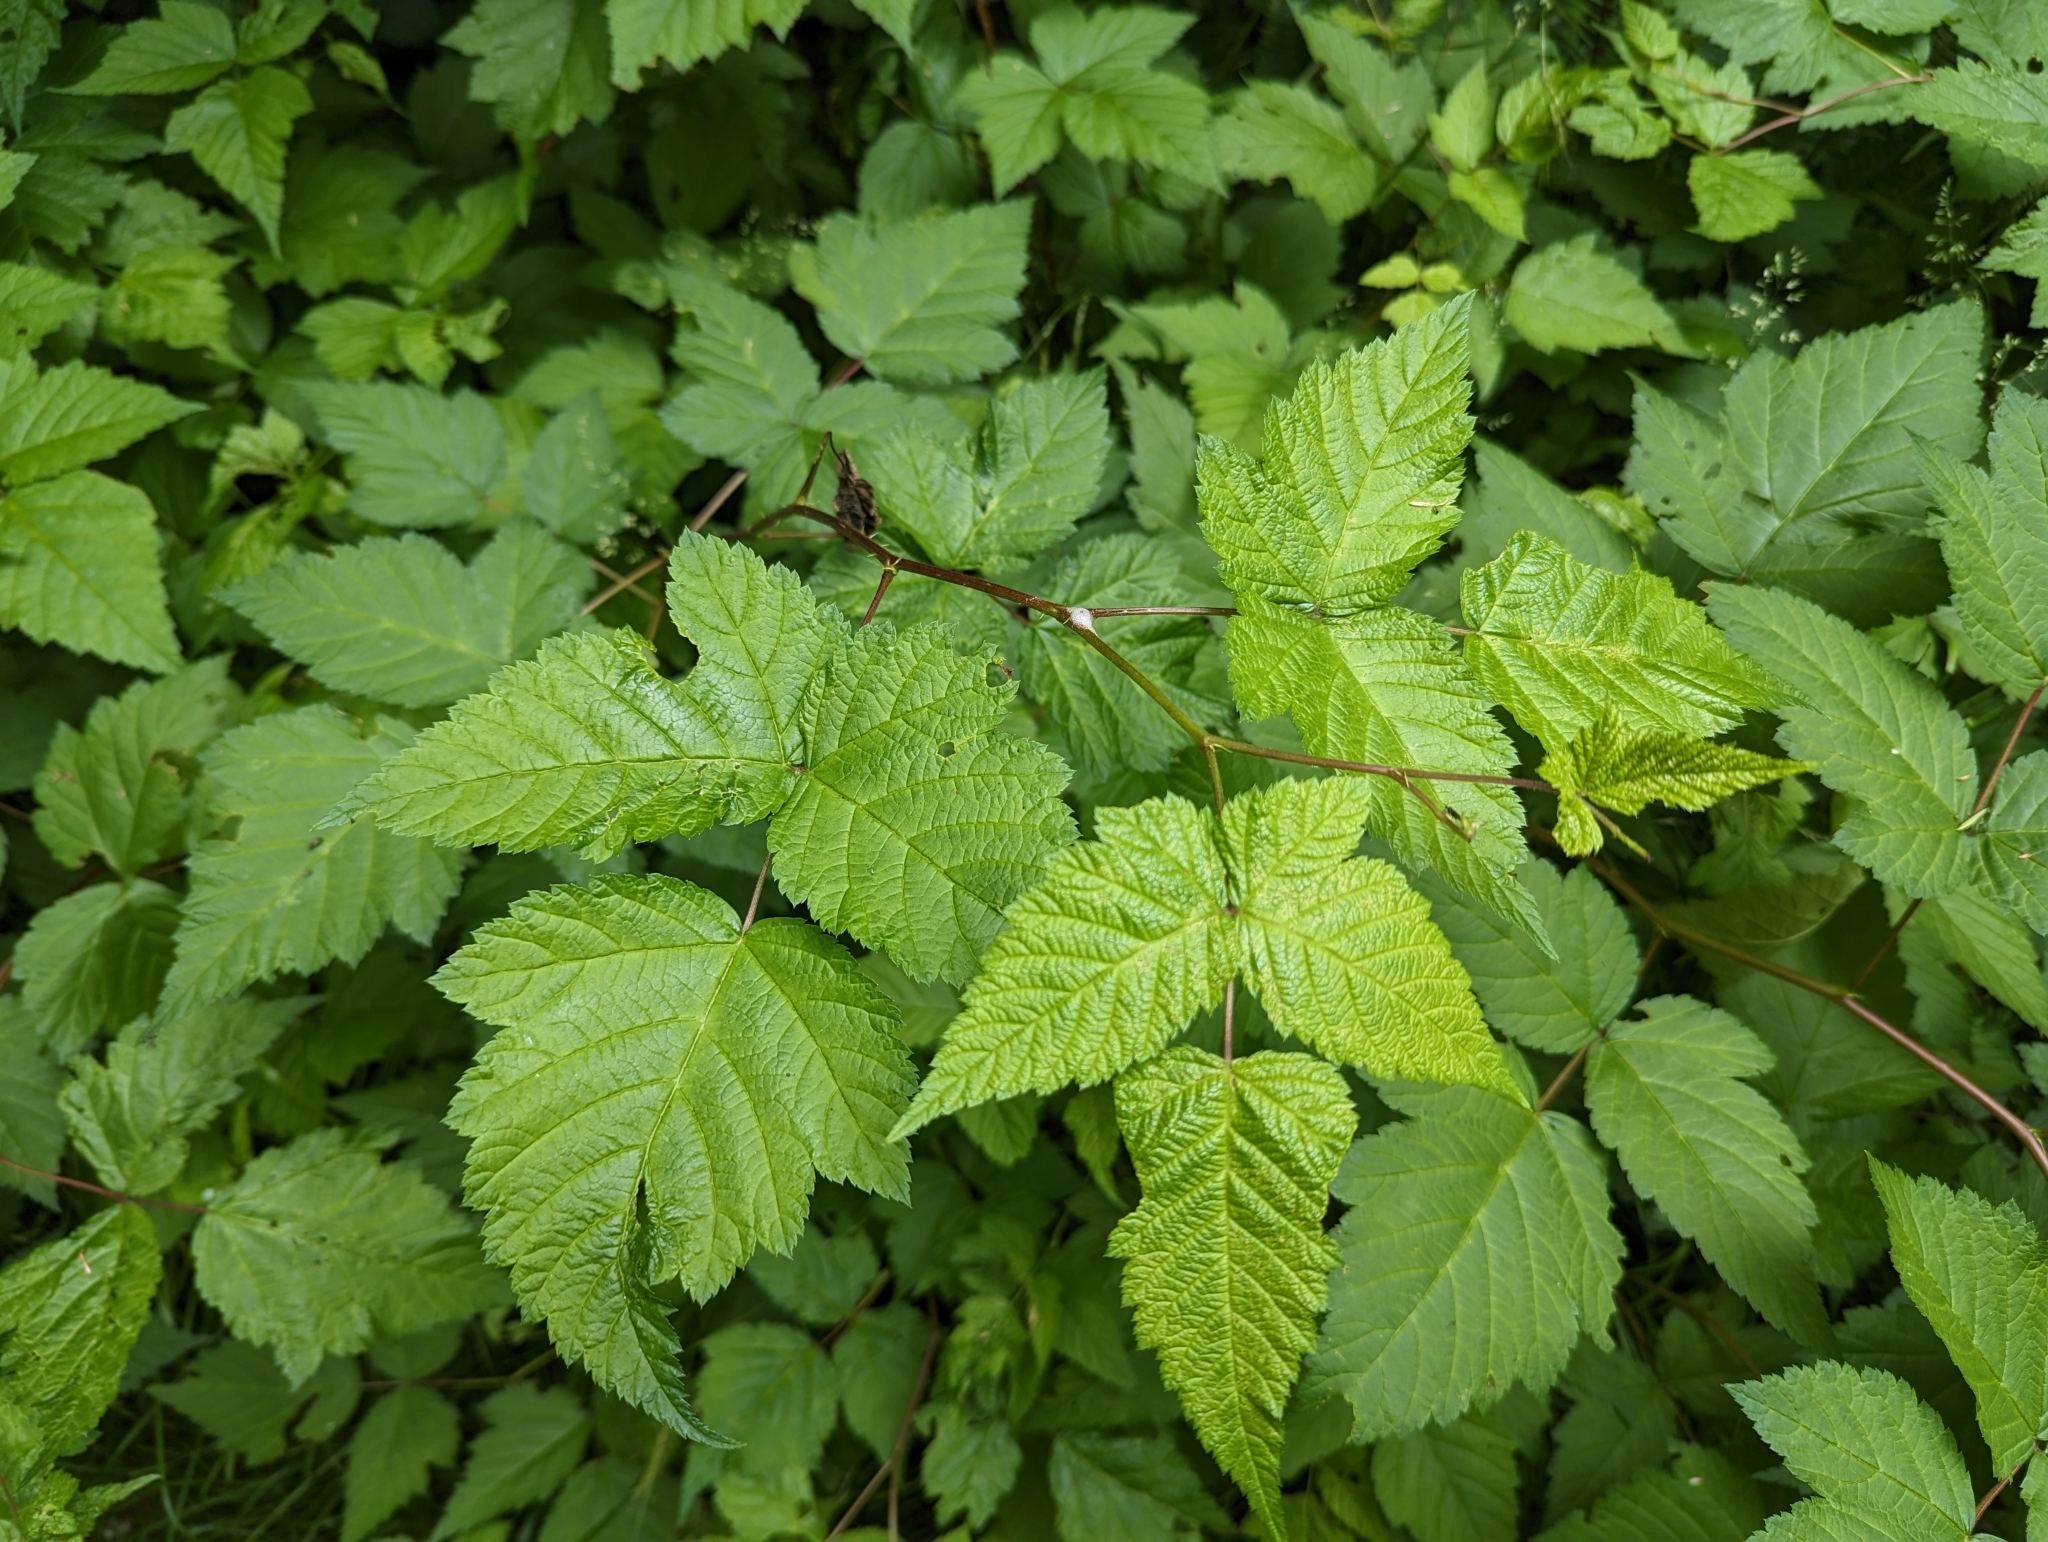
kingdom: Plantae
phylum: Tracheophyta
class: Magnoliopsida
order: Rosales
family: Rosaceae
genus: Rubus
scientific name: Rubus spectabilis
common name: Salmonberry
